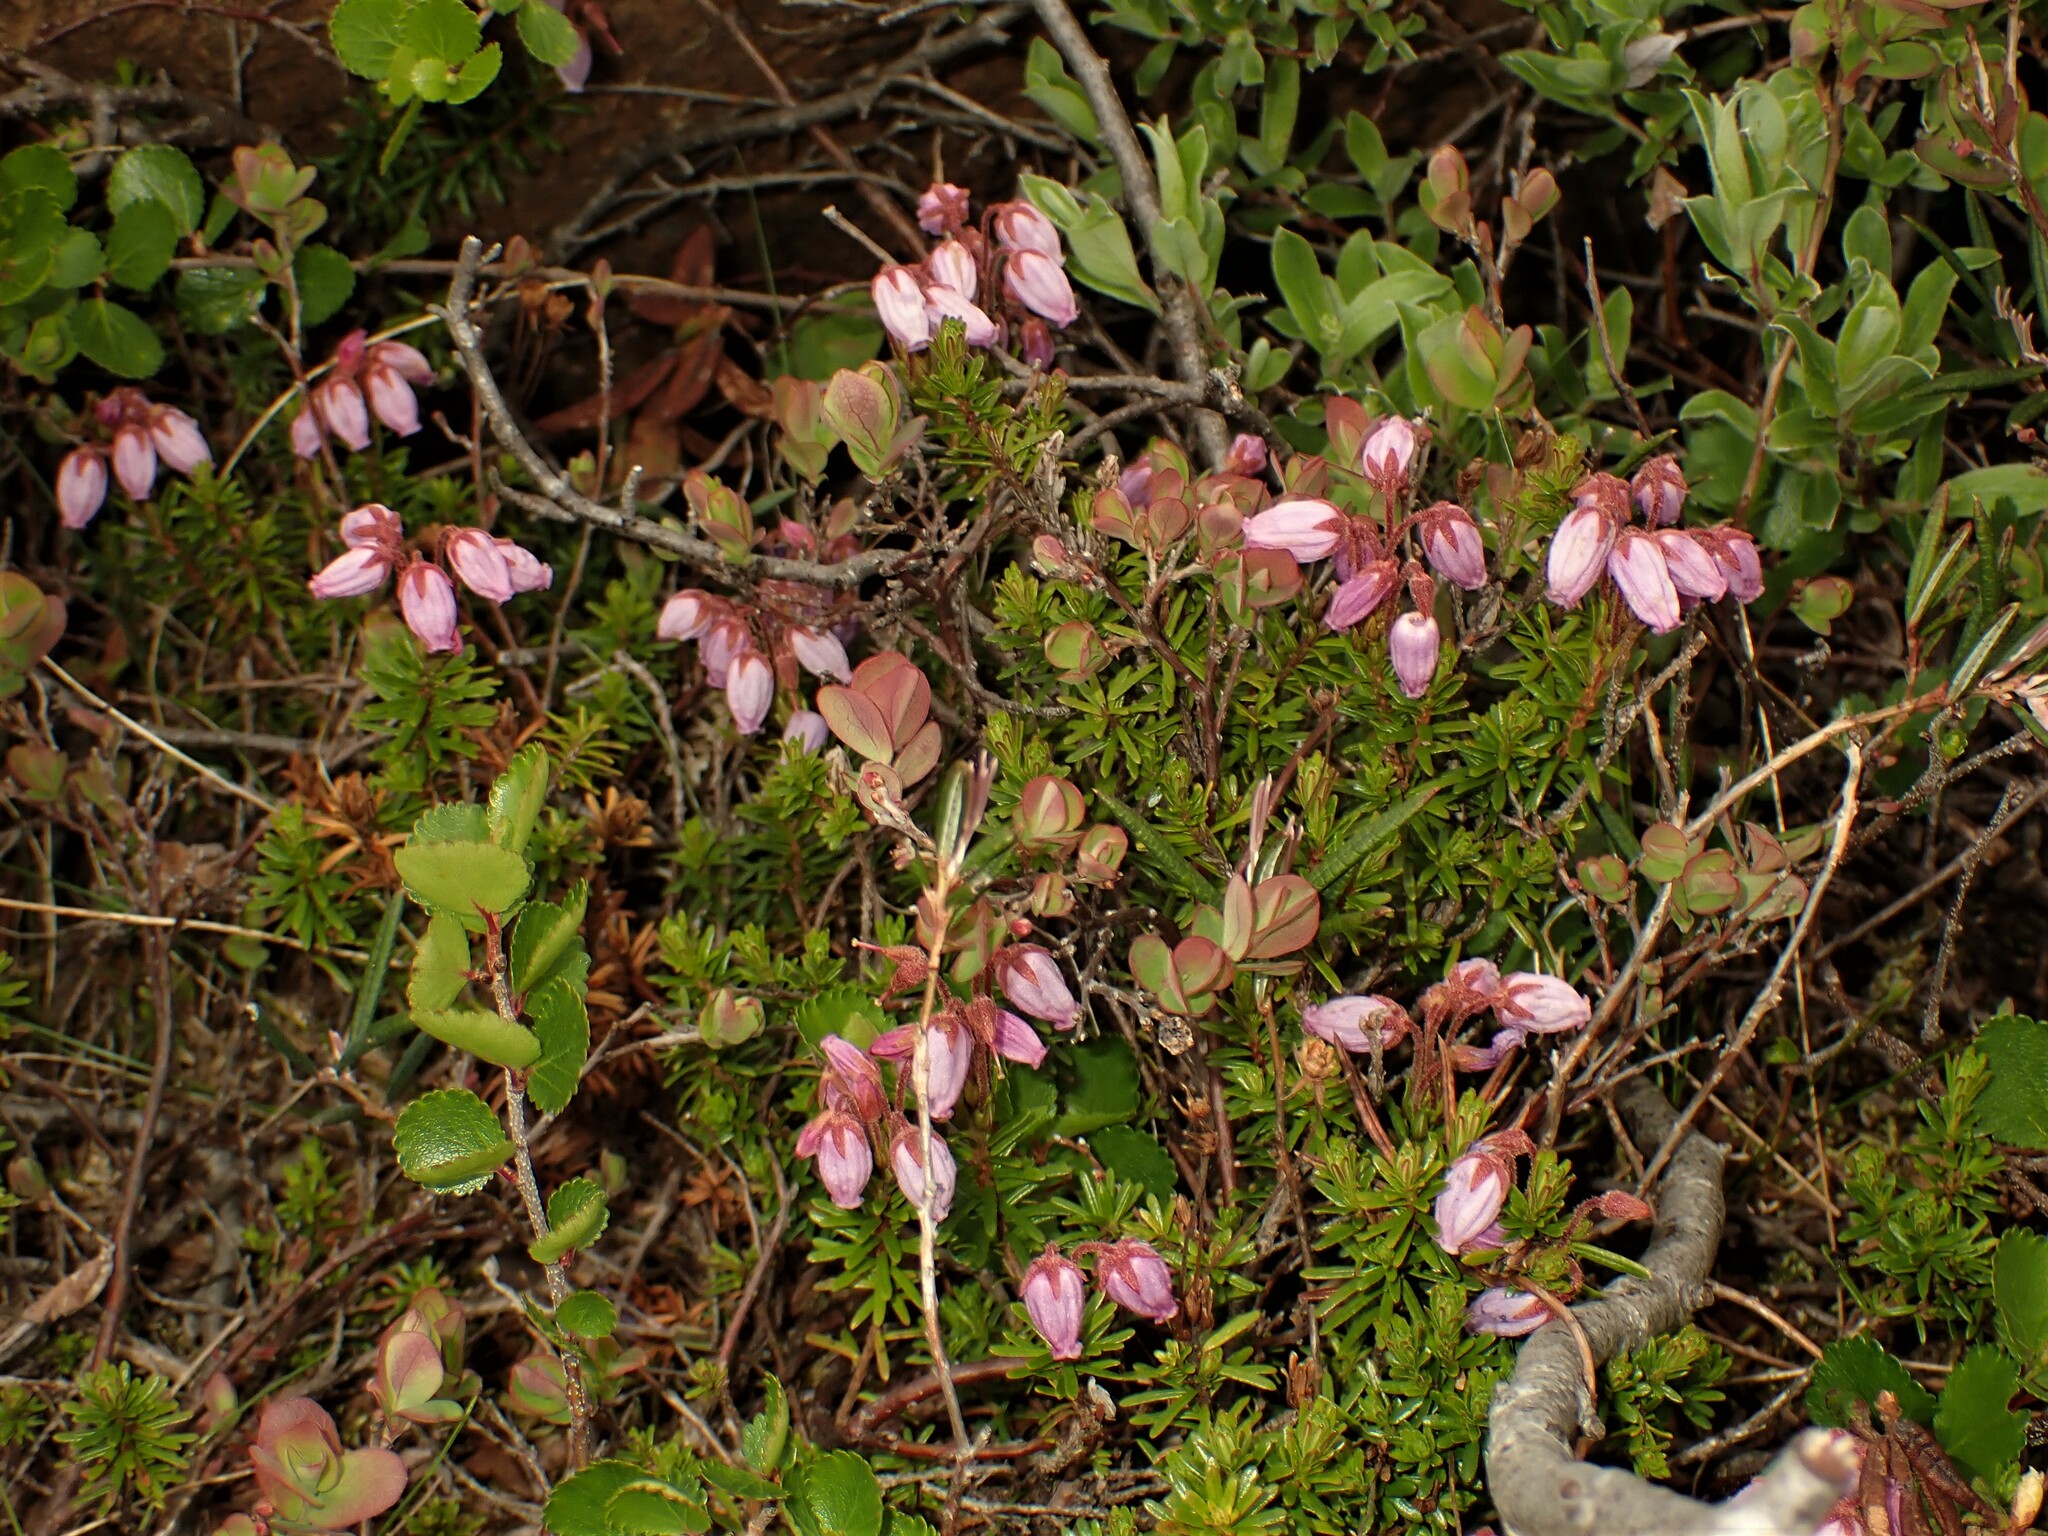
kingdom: Plantae
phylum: Tracheophyta
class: Magnoliopsida
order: Ericales
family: Ericaceae
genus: Phyllodoce
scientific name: Phyllodoce caerulea
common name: Blue heath
